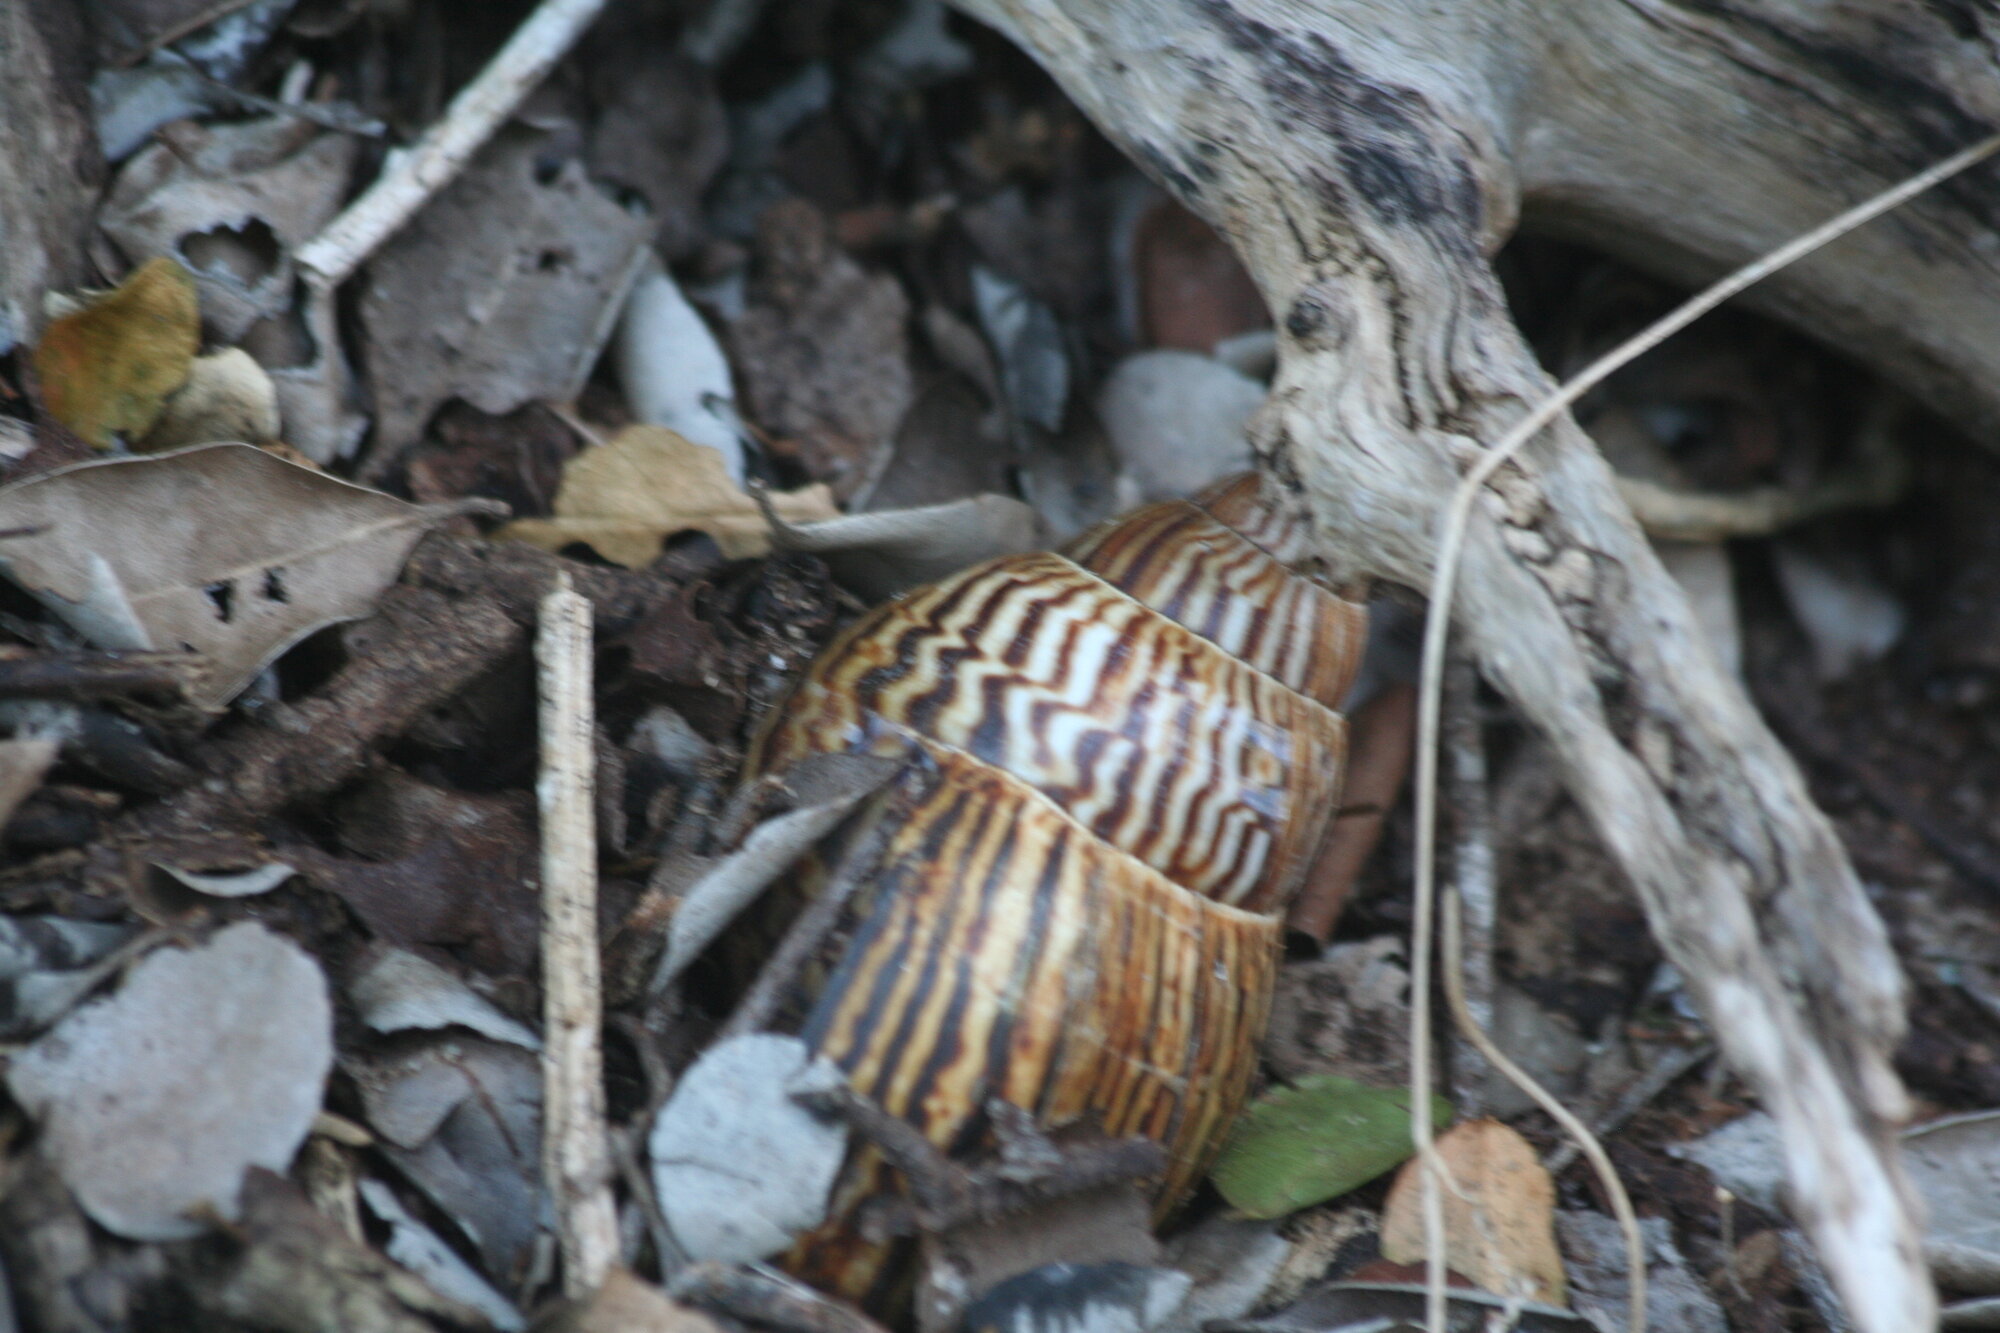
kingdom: Animalia
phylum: Mollusca
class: Gastropoda
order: Stylommatophora
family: Achatinidae
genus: Cochlitoma
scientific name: Cochlitoma zebra
